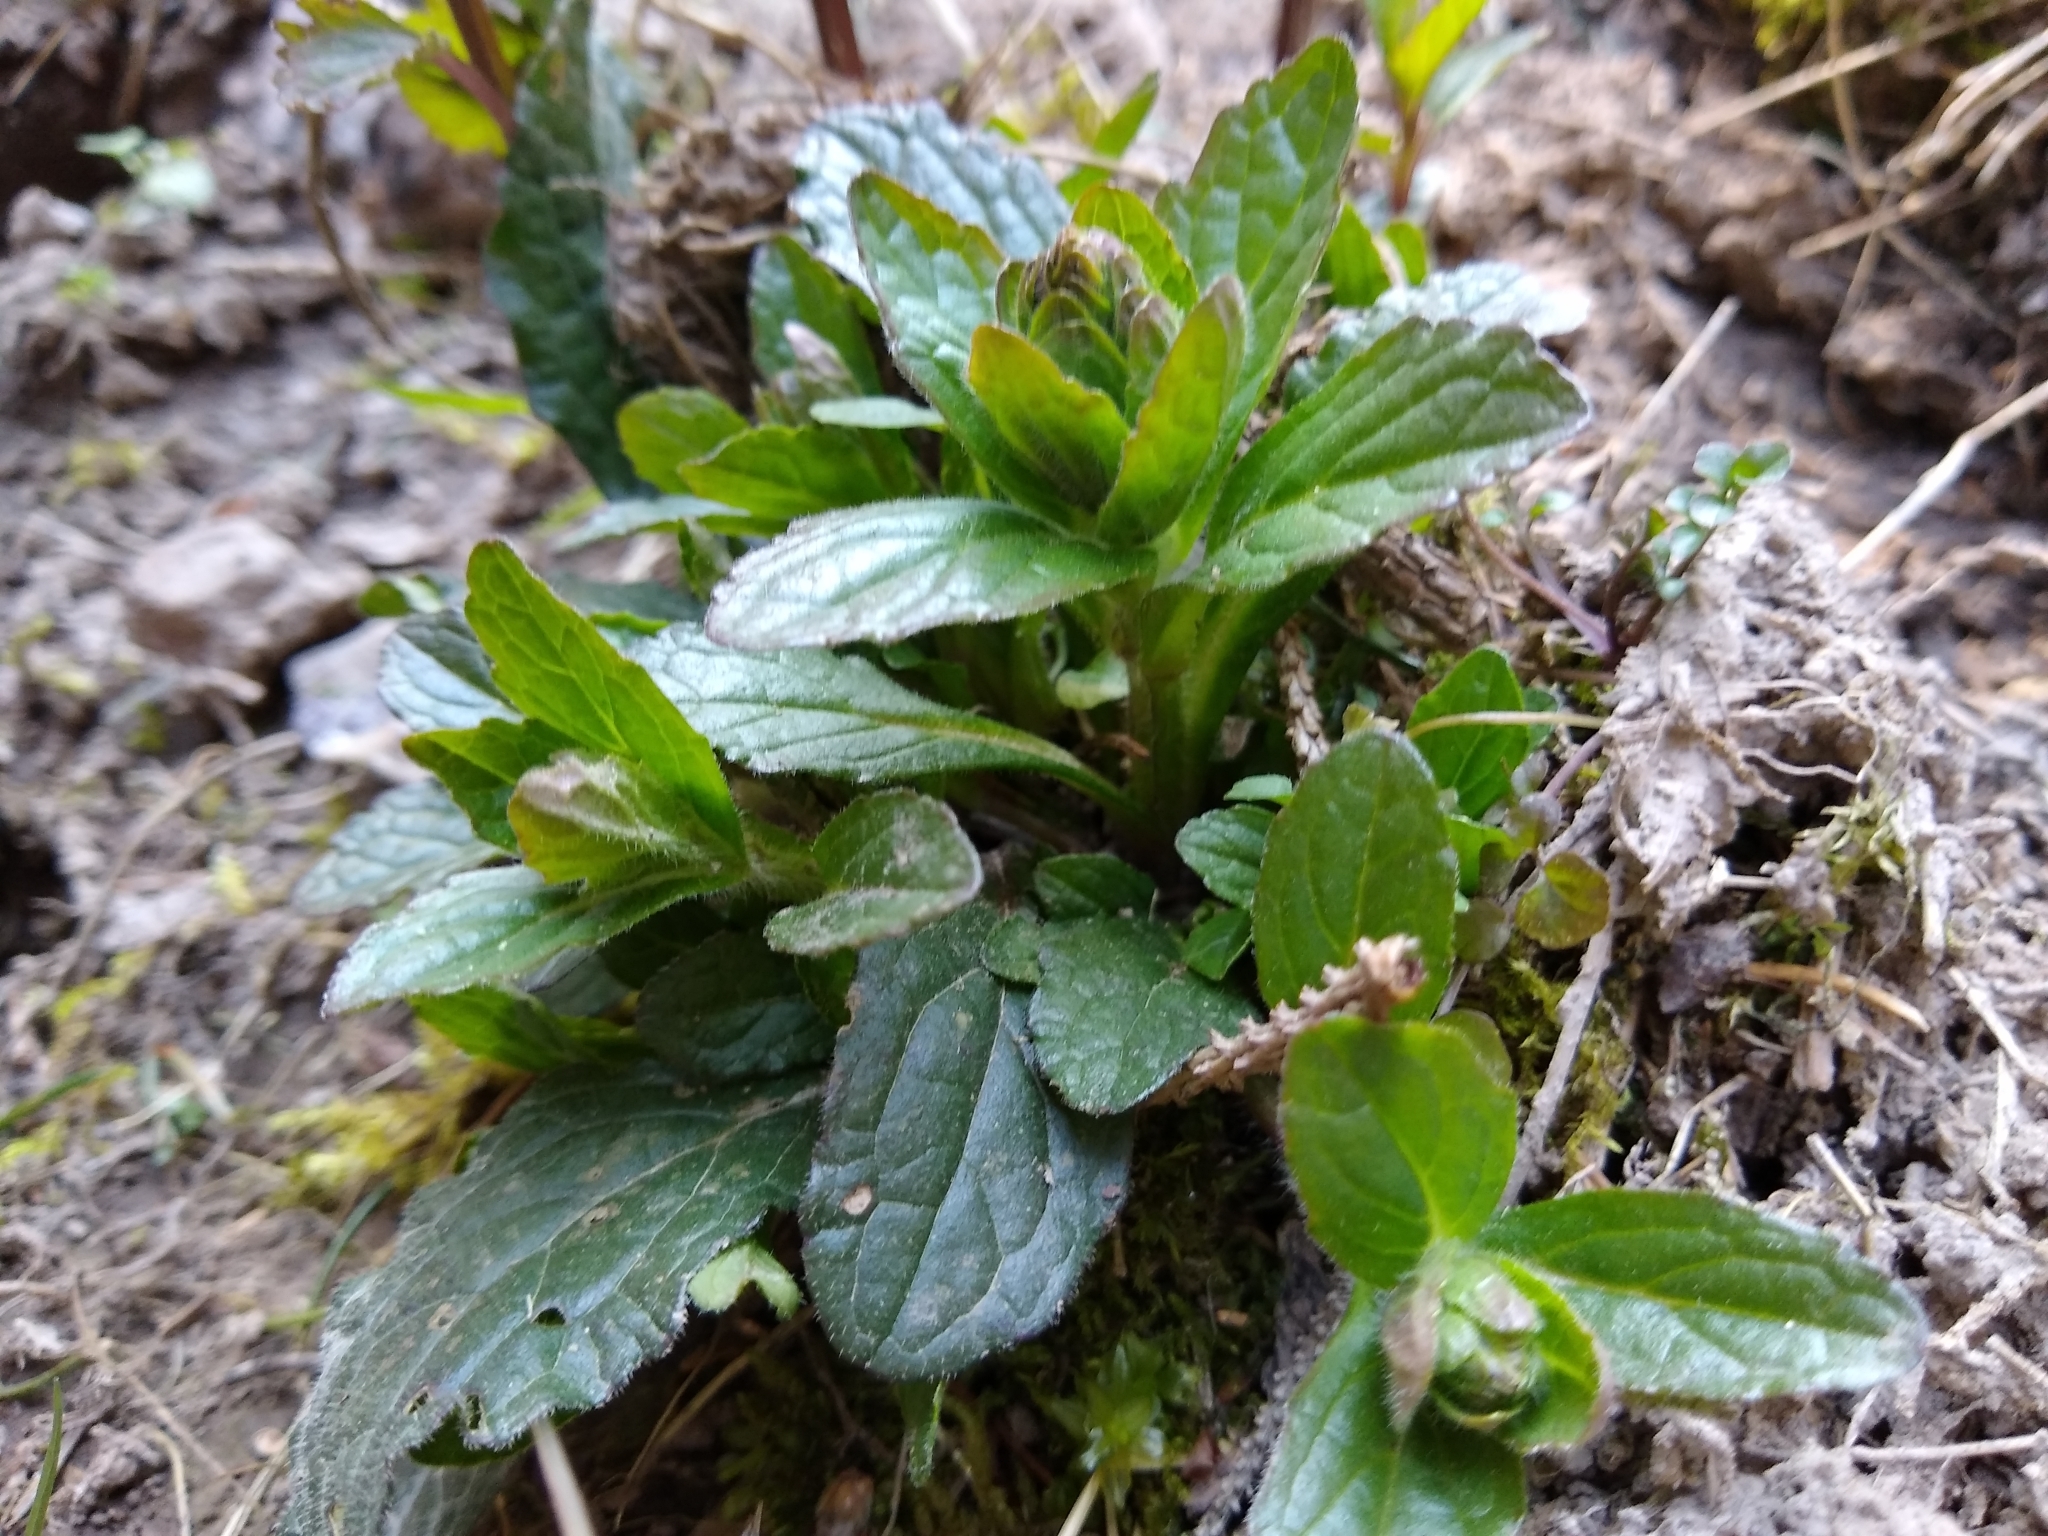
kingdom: Plantae
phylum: Tracheophyta
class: Magnoliopsida
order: Lamiales
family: Lamiaceae
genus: Ajuga
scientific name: Ajuga reptans
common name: Bugle
